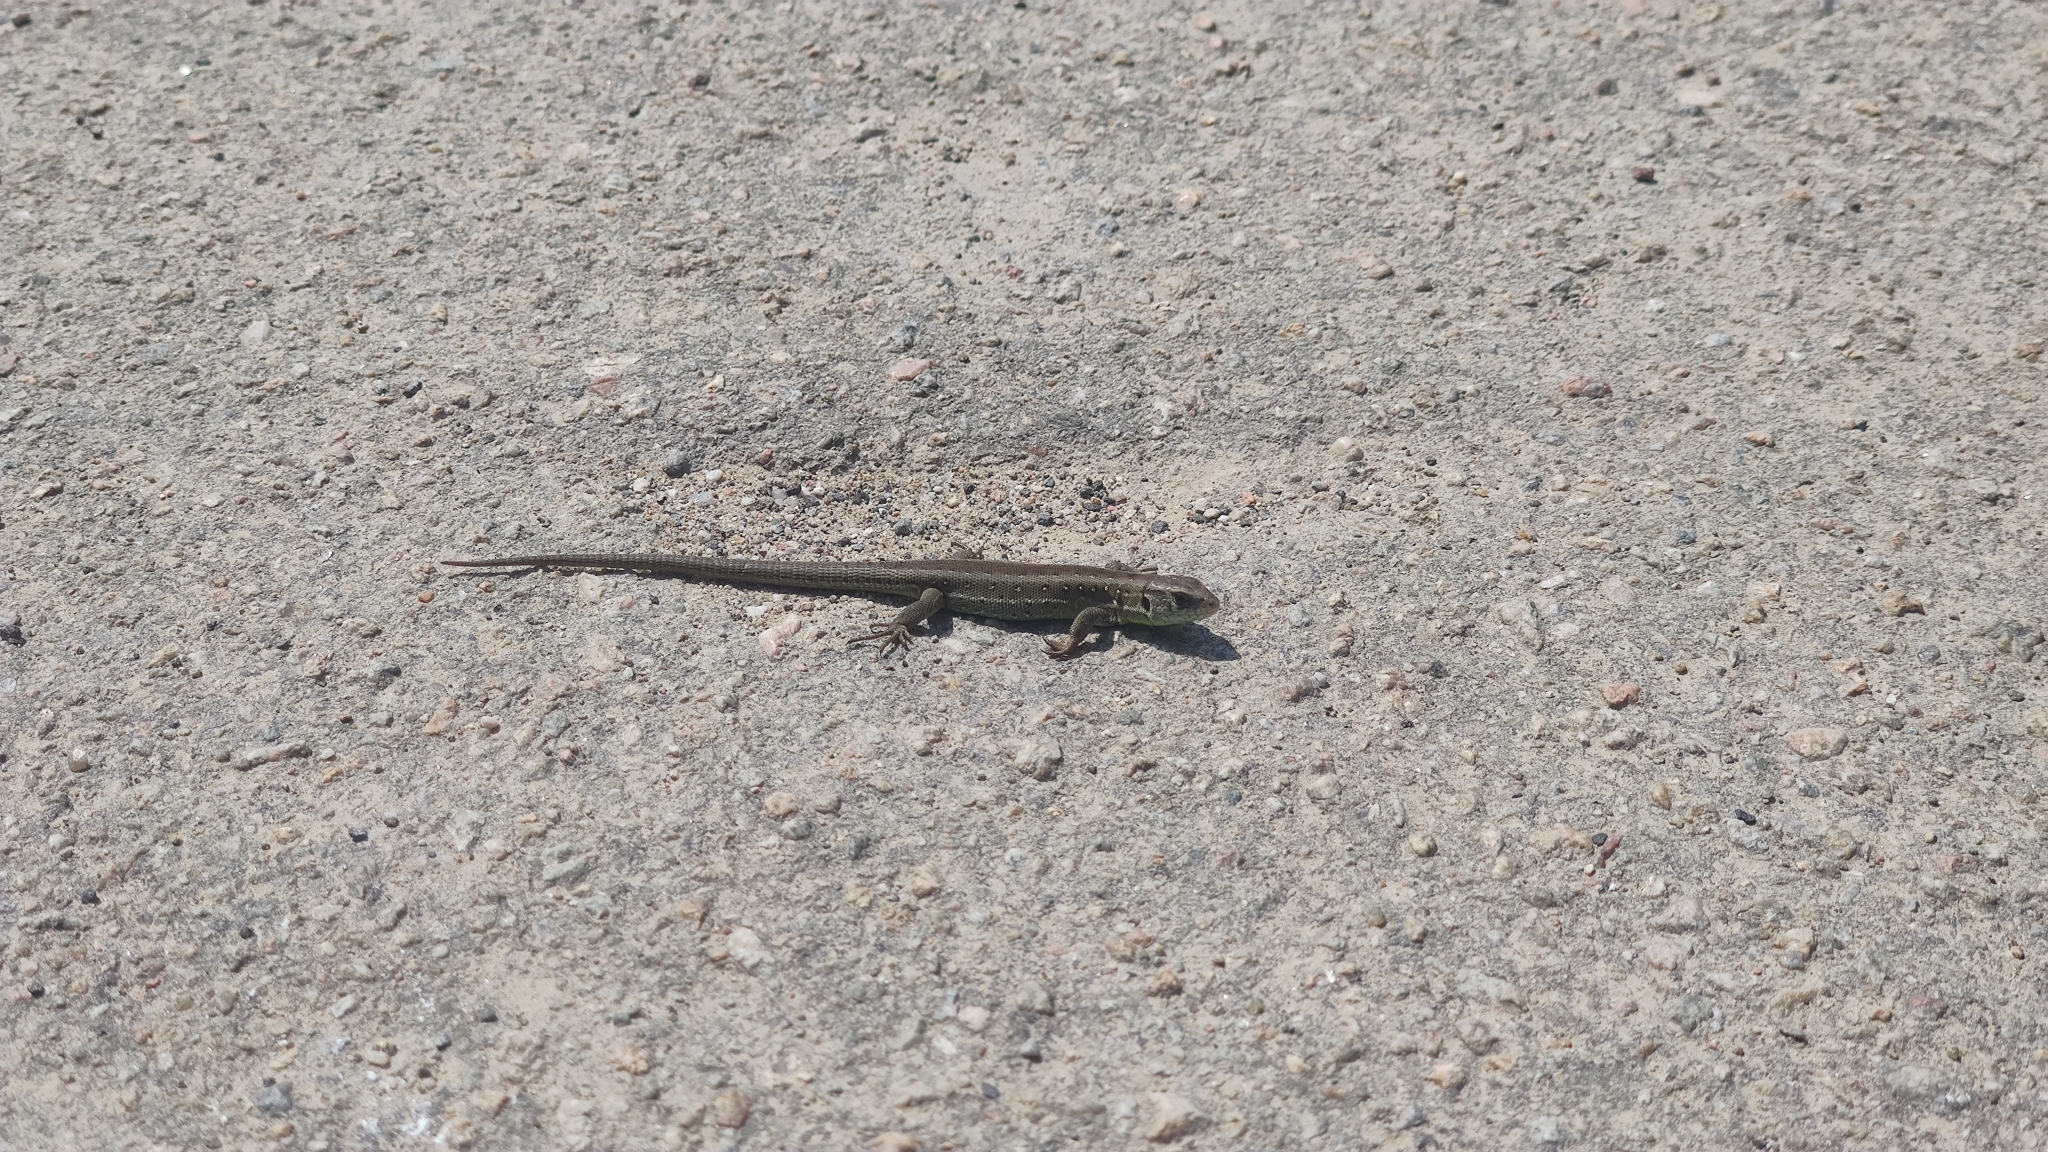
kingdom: Animalia
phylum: Chordata
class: Squamata
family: Lacertidae
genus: Lacerta
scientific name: Lacerta agilis
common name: Sand lizard
